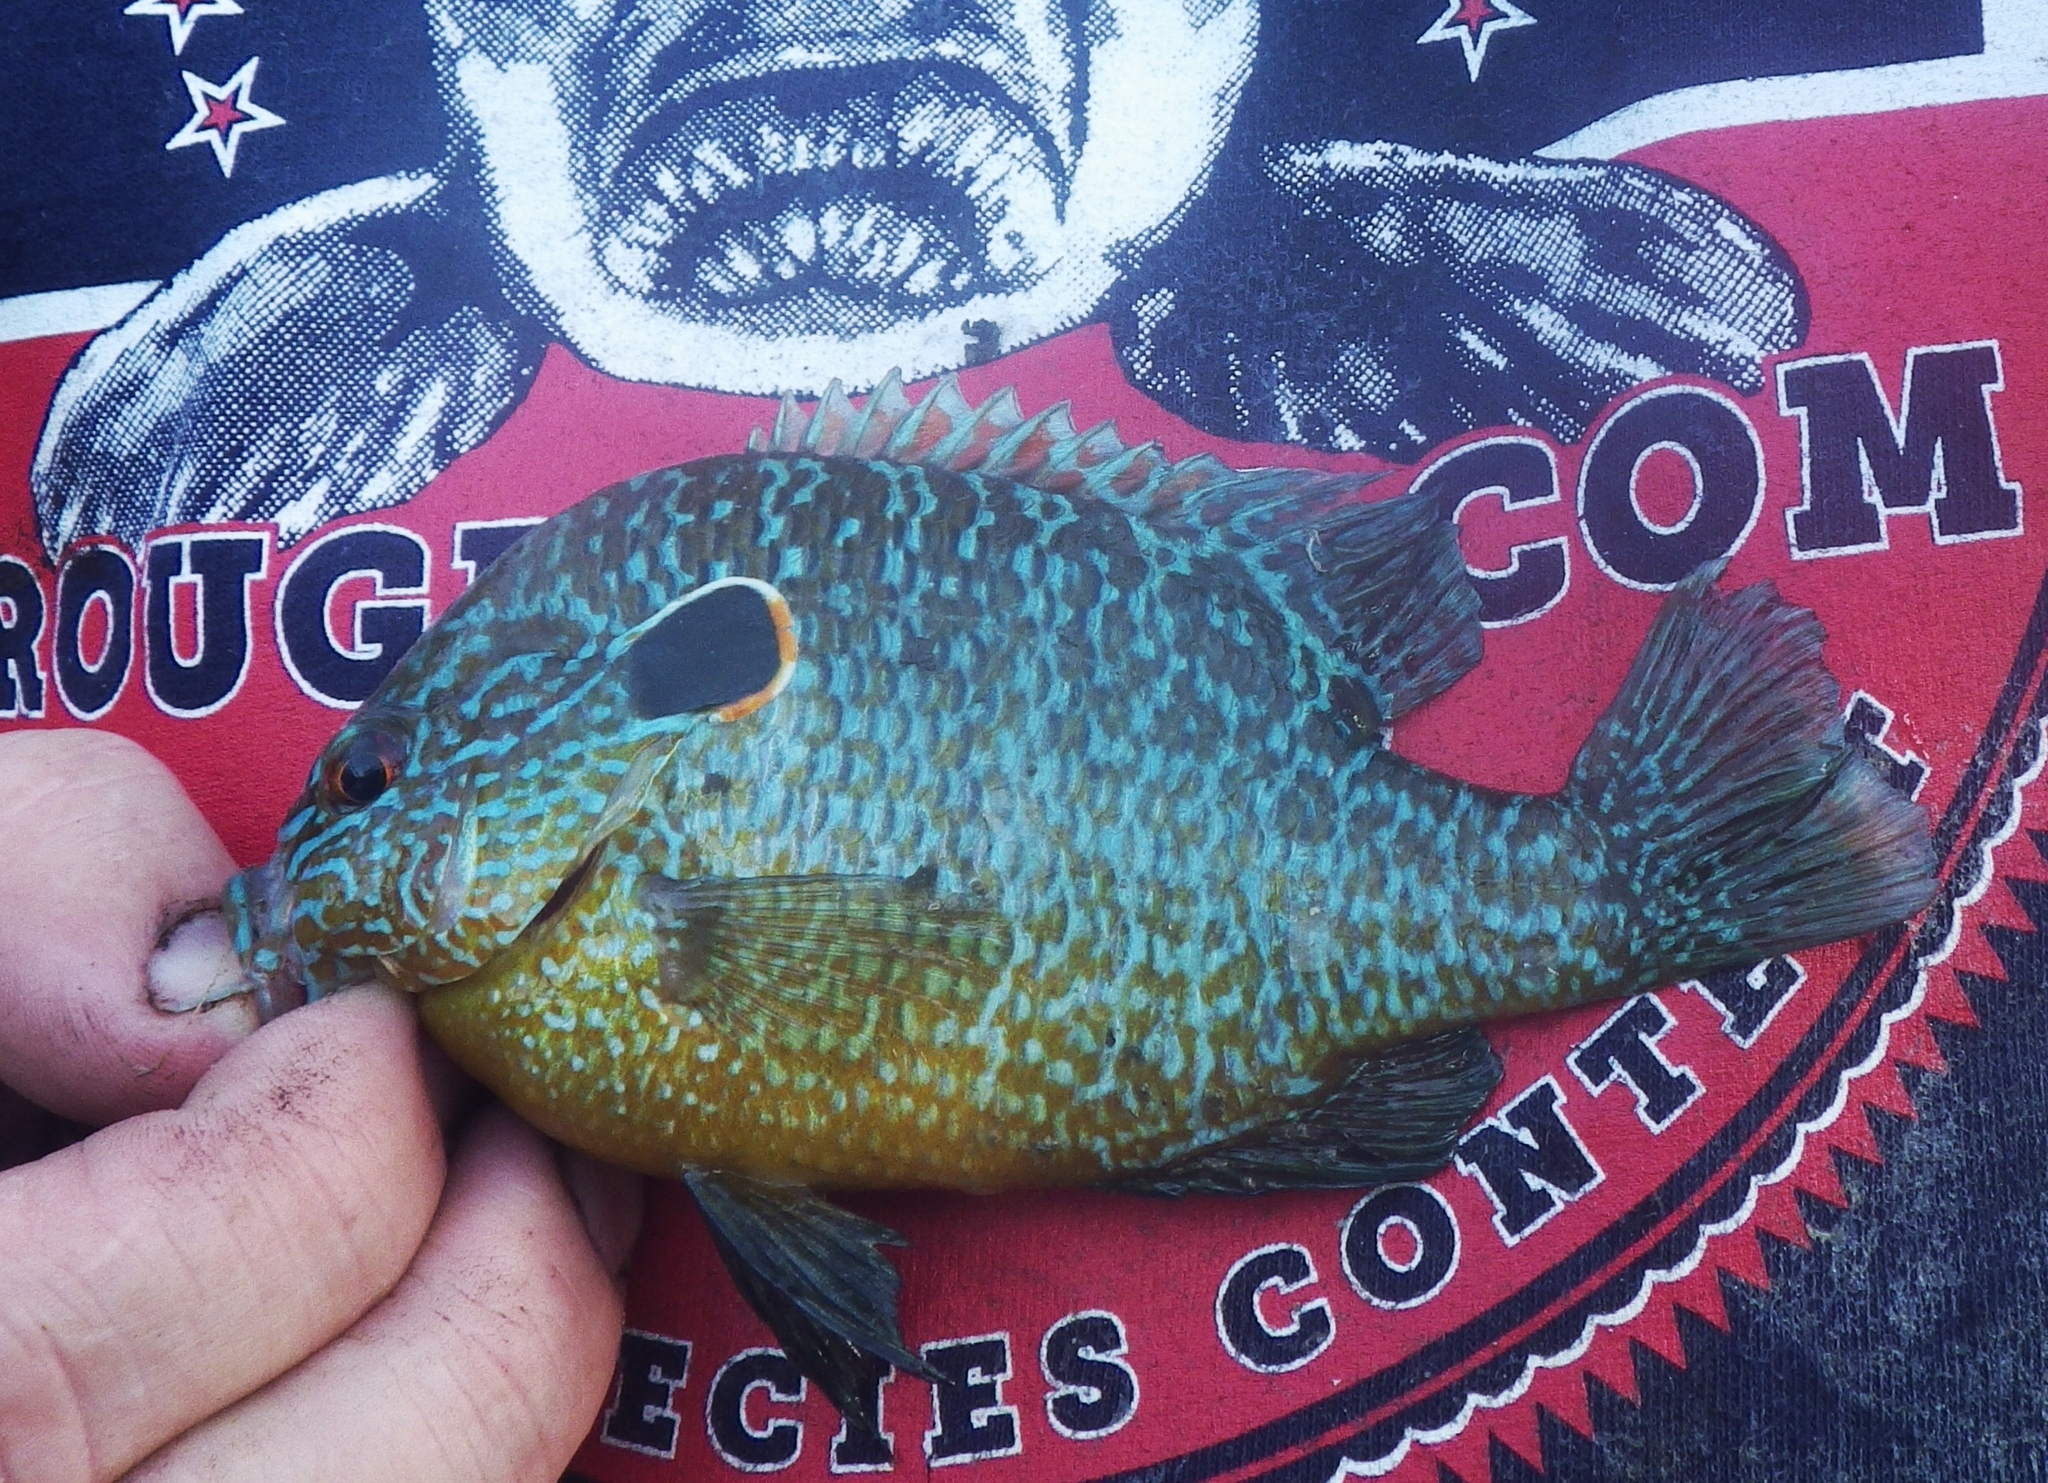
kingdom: Animalia
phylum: Chordata
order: Perciformes
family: Centrarchidae
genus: Lepomis
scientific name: Lepomis peltastes
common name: Northern sunfish
